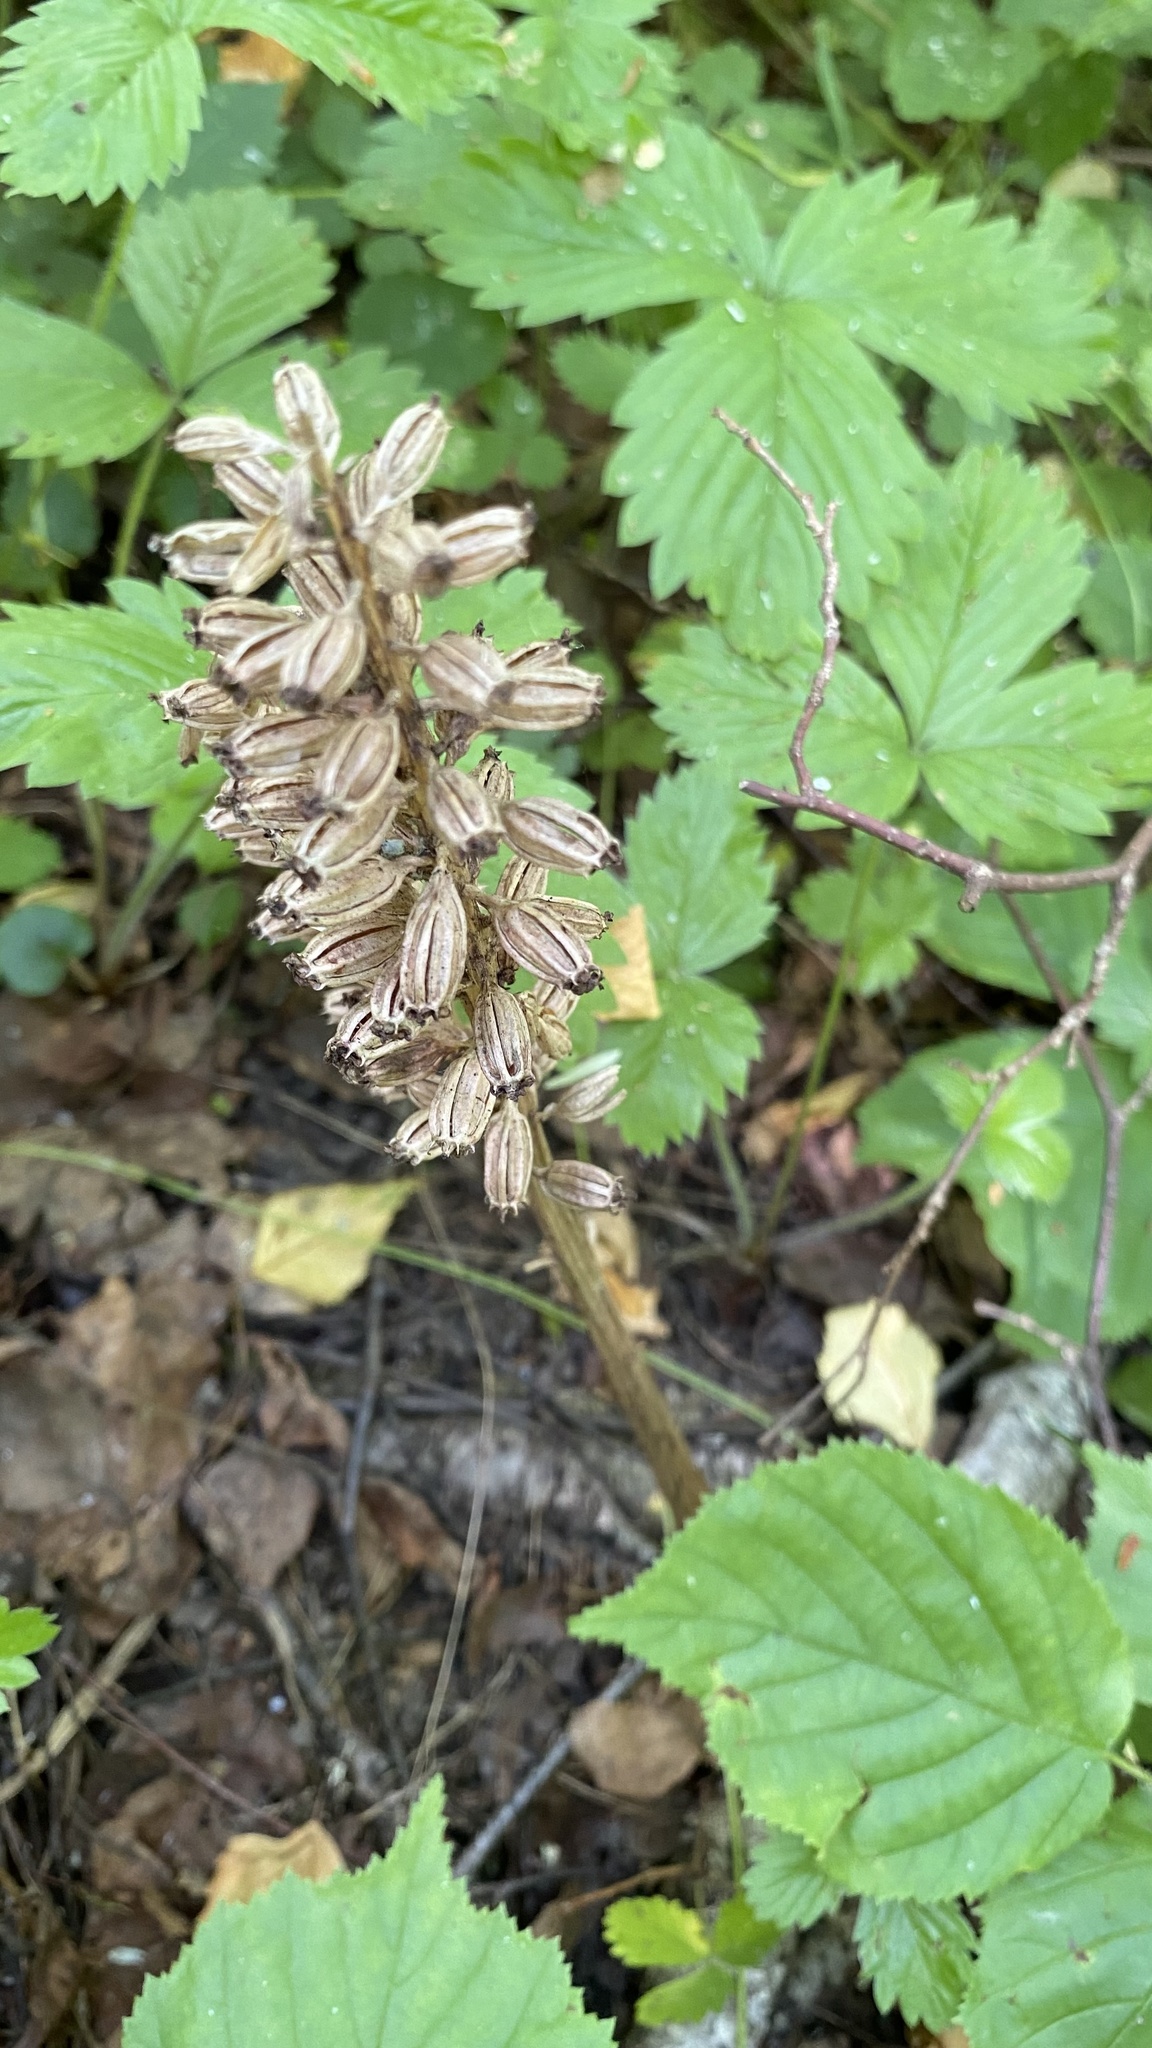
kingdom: Plantae
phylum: Tracheophyta
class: Liliopsida
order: Asparagales
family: Orchidaceae
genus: Neottia
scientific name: Neottia nidus-avis
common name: Bird's-nest orchid
